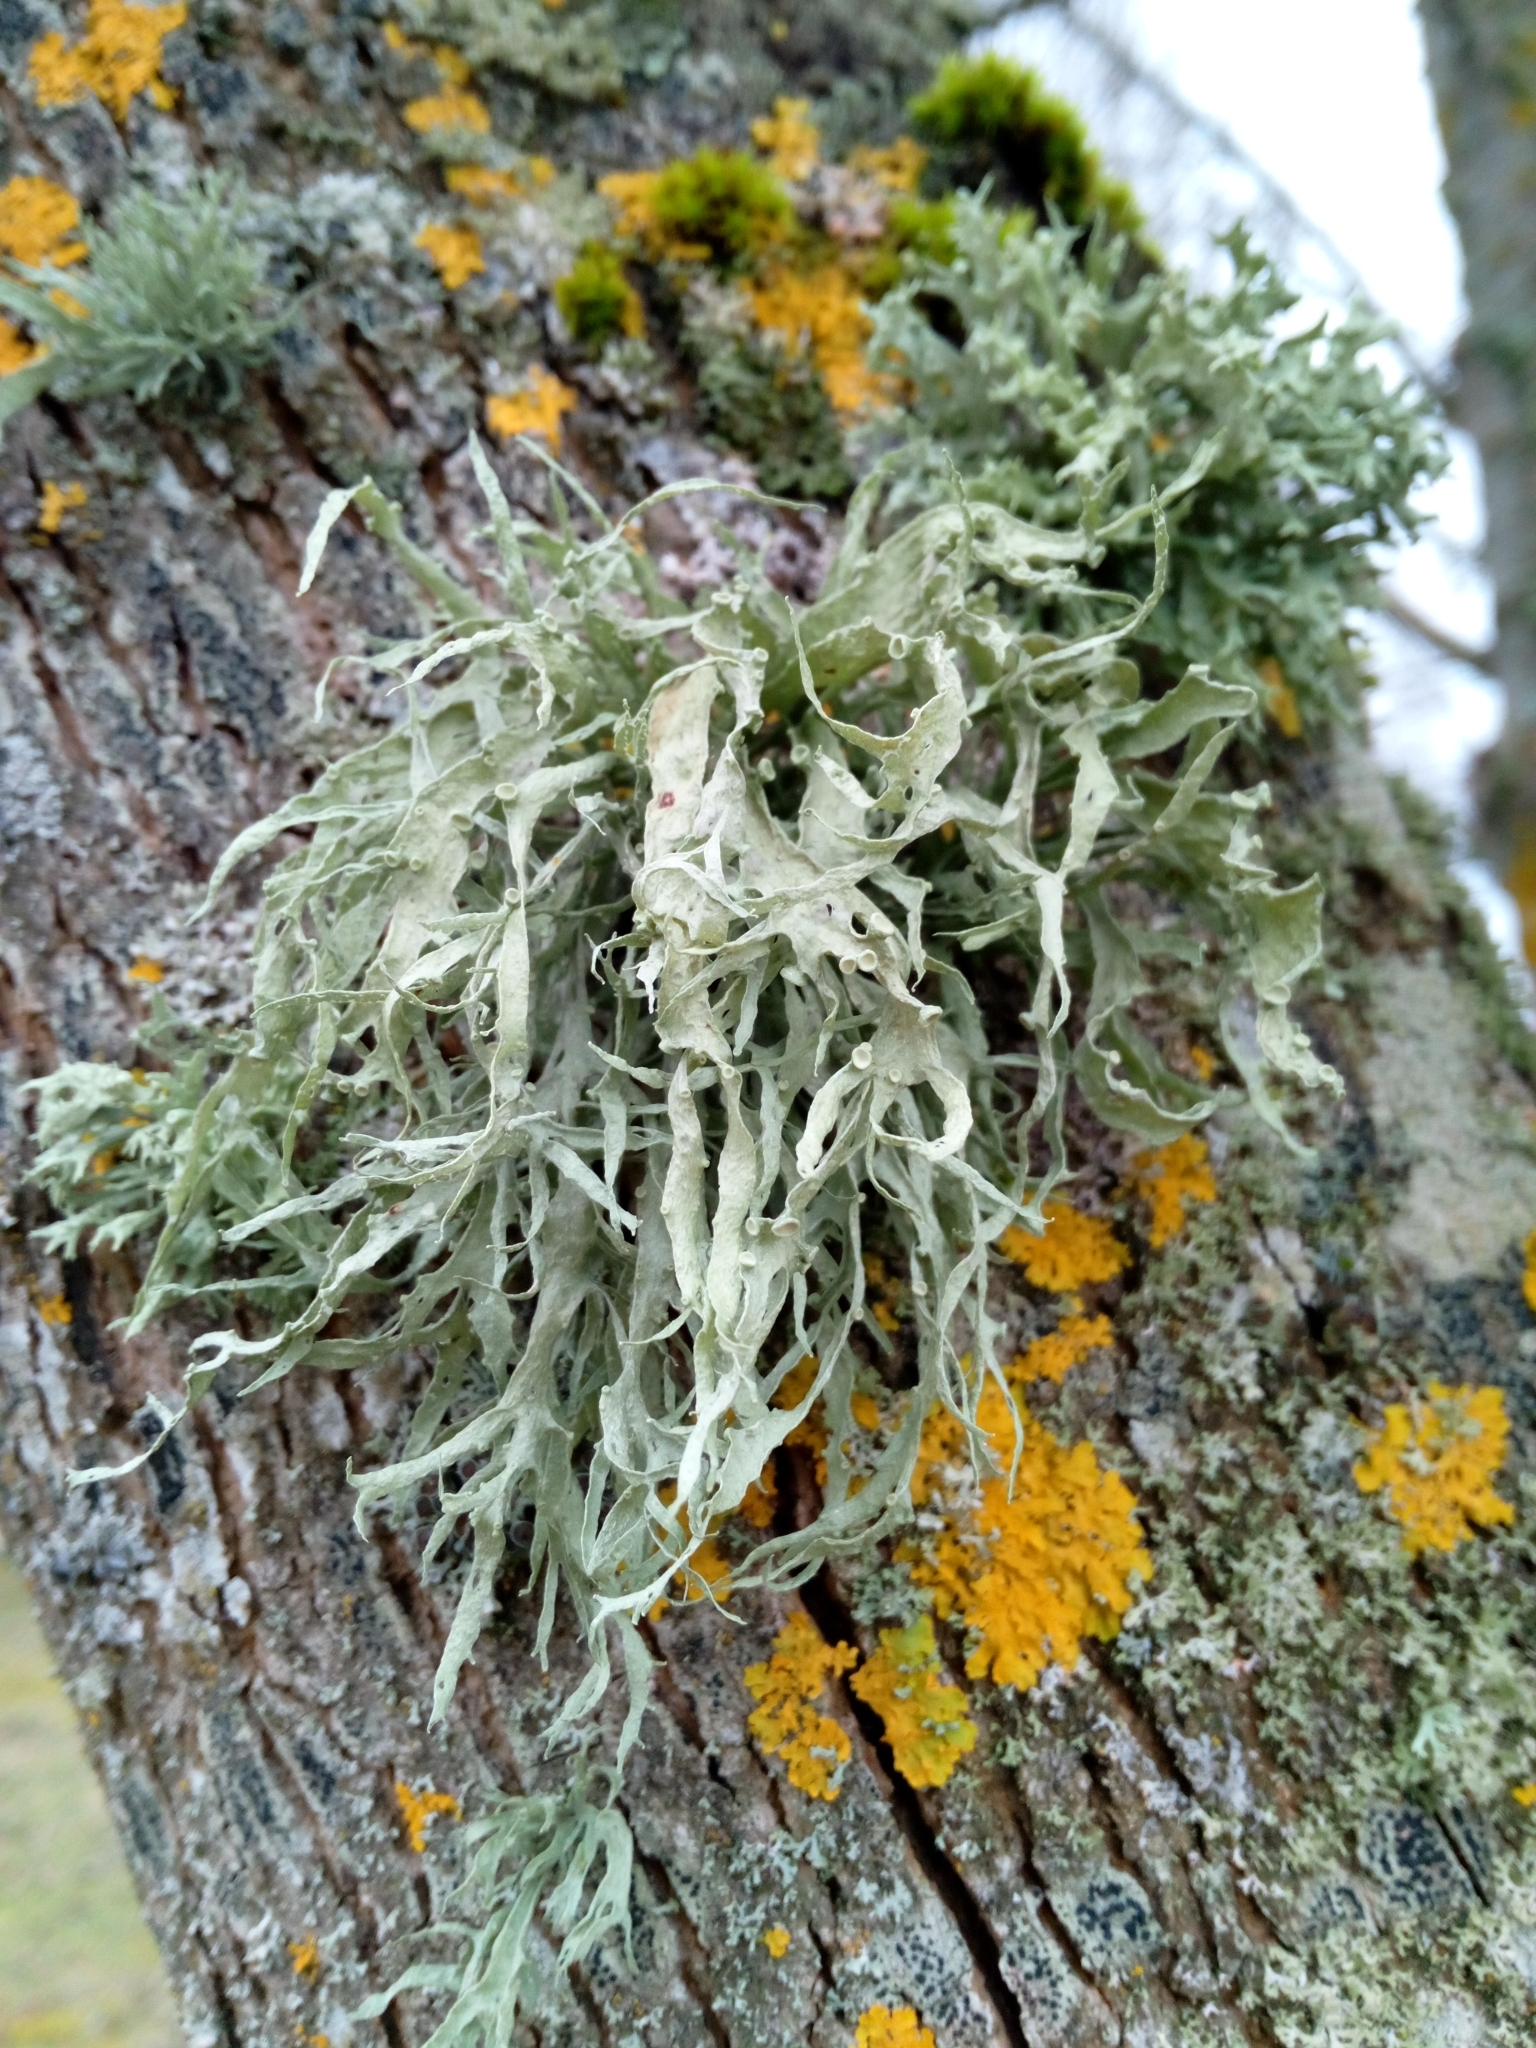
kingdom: Fungi
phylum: Ascomycota
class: Lecanoromycetes
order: Lecanorales
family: Ramalinaceae
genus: Ramalina
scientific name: Ramalina fraxinea
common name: Cartilage lichen
